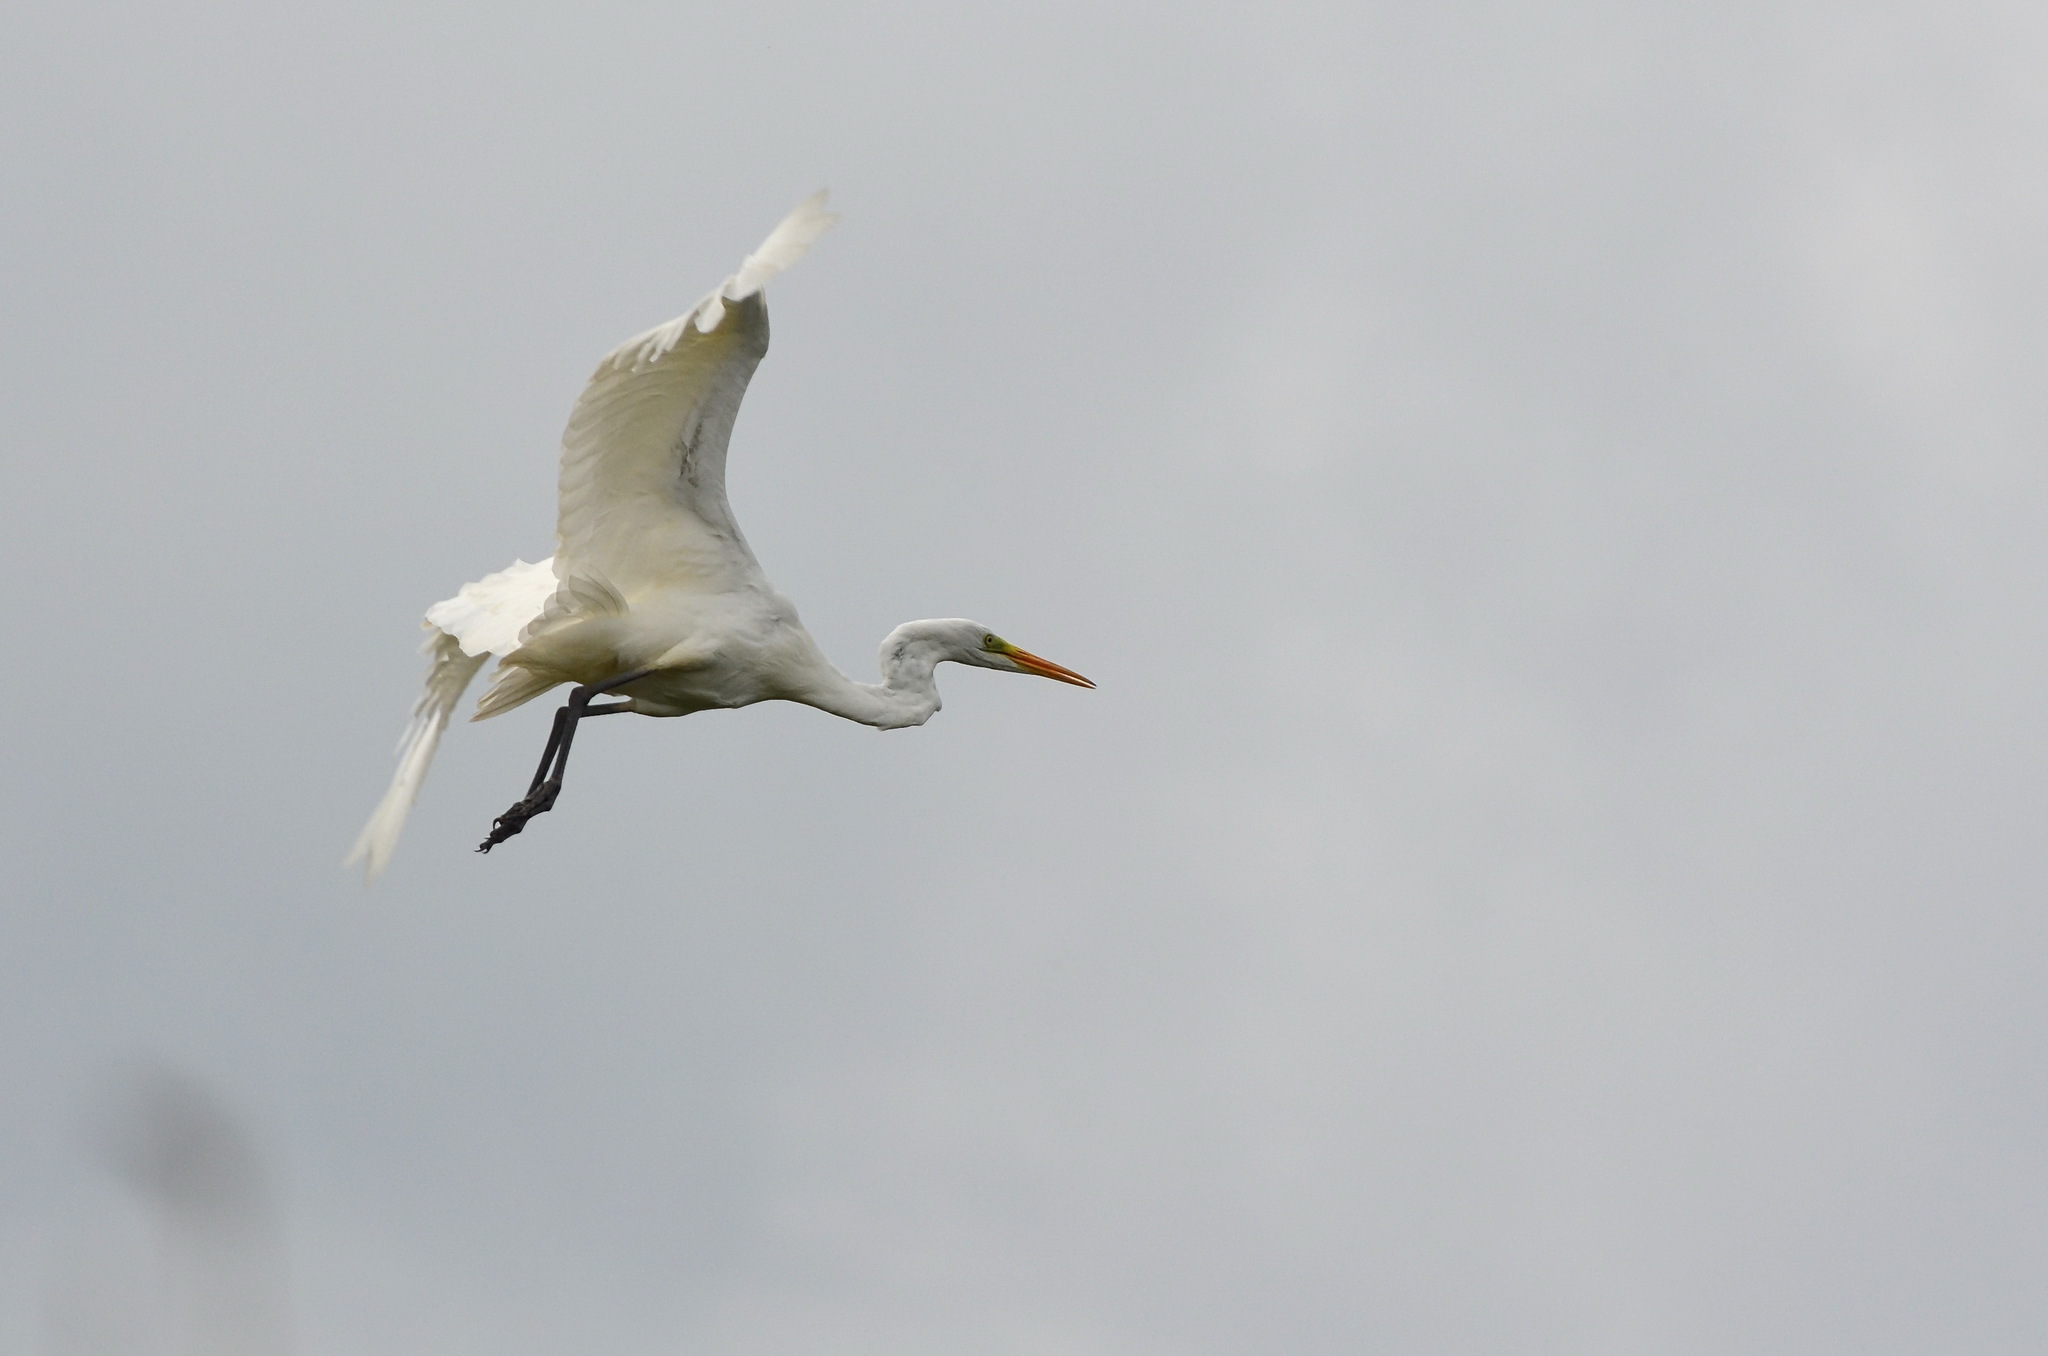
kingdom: Animalia
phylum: Chordata
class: Aves
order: Pelecaniformes
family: Ardeidae
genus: Ardea
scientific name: Ardea alba
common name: Great egret
